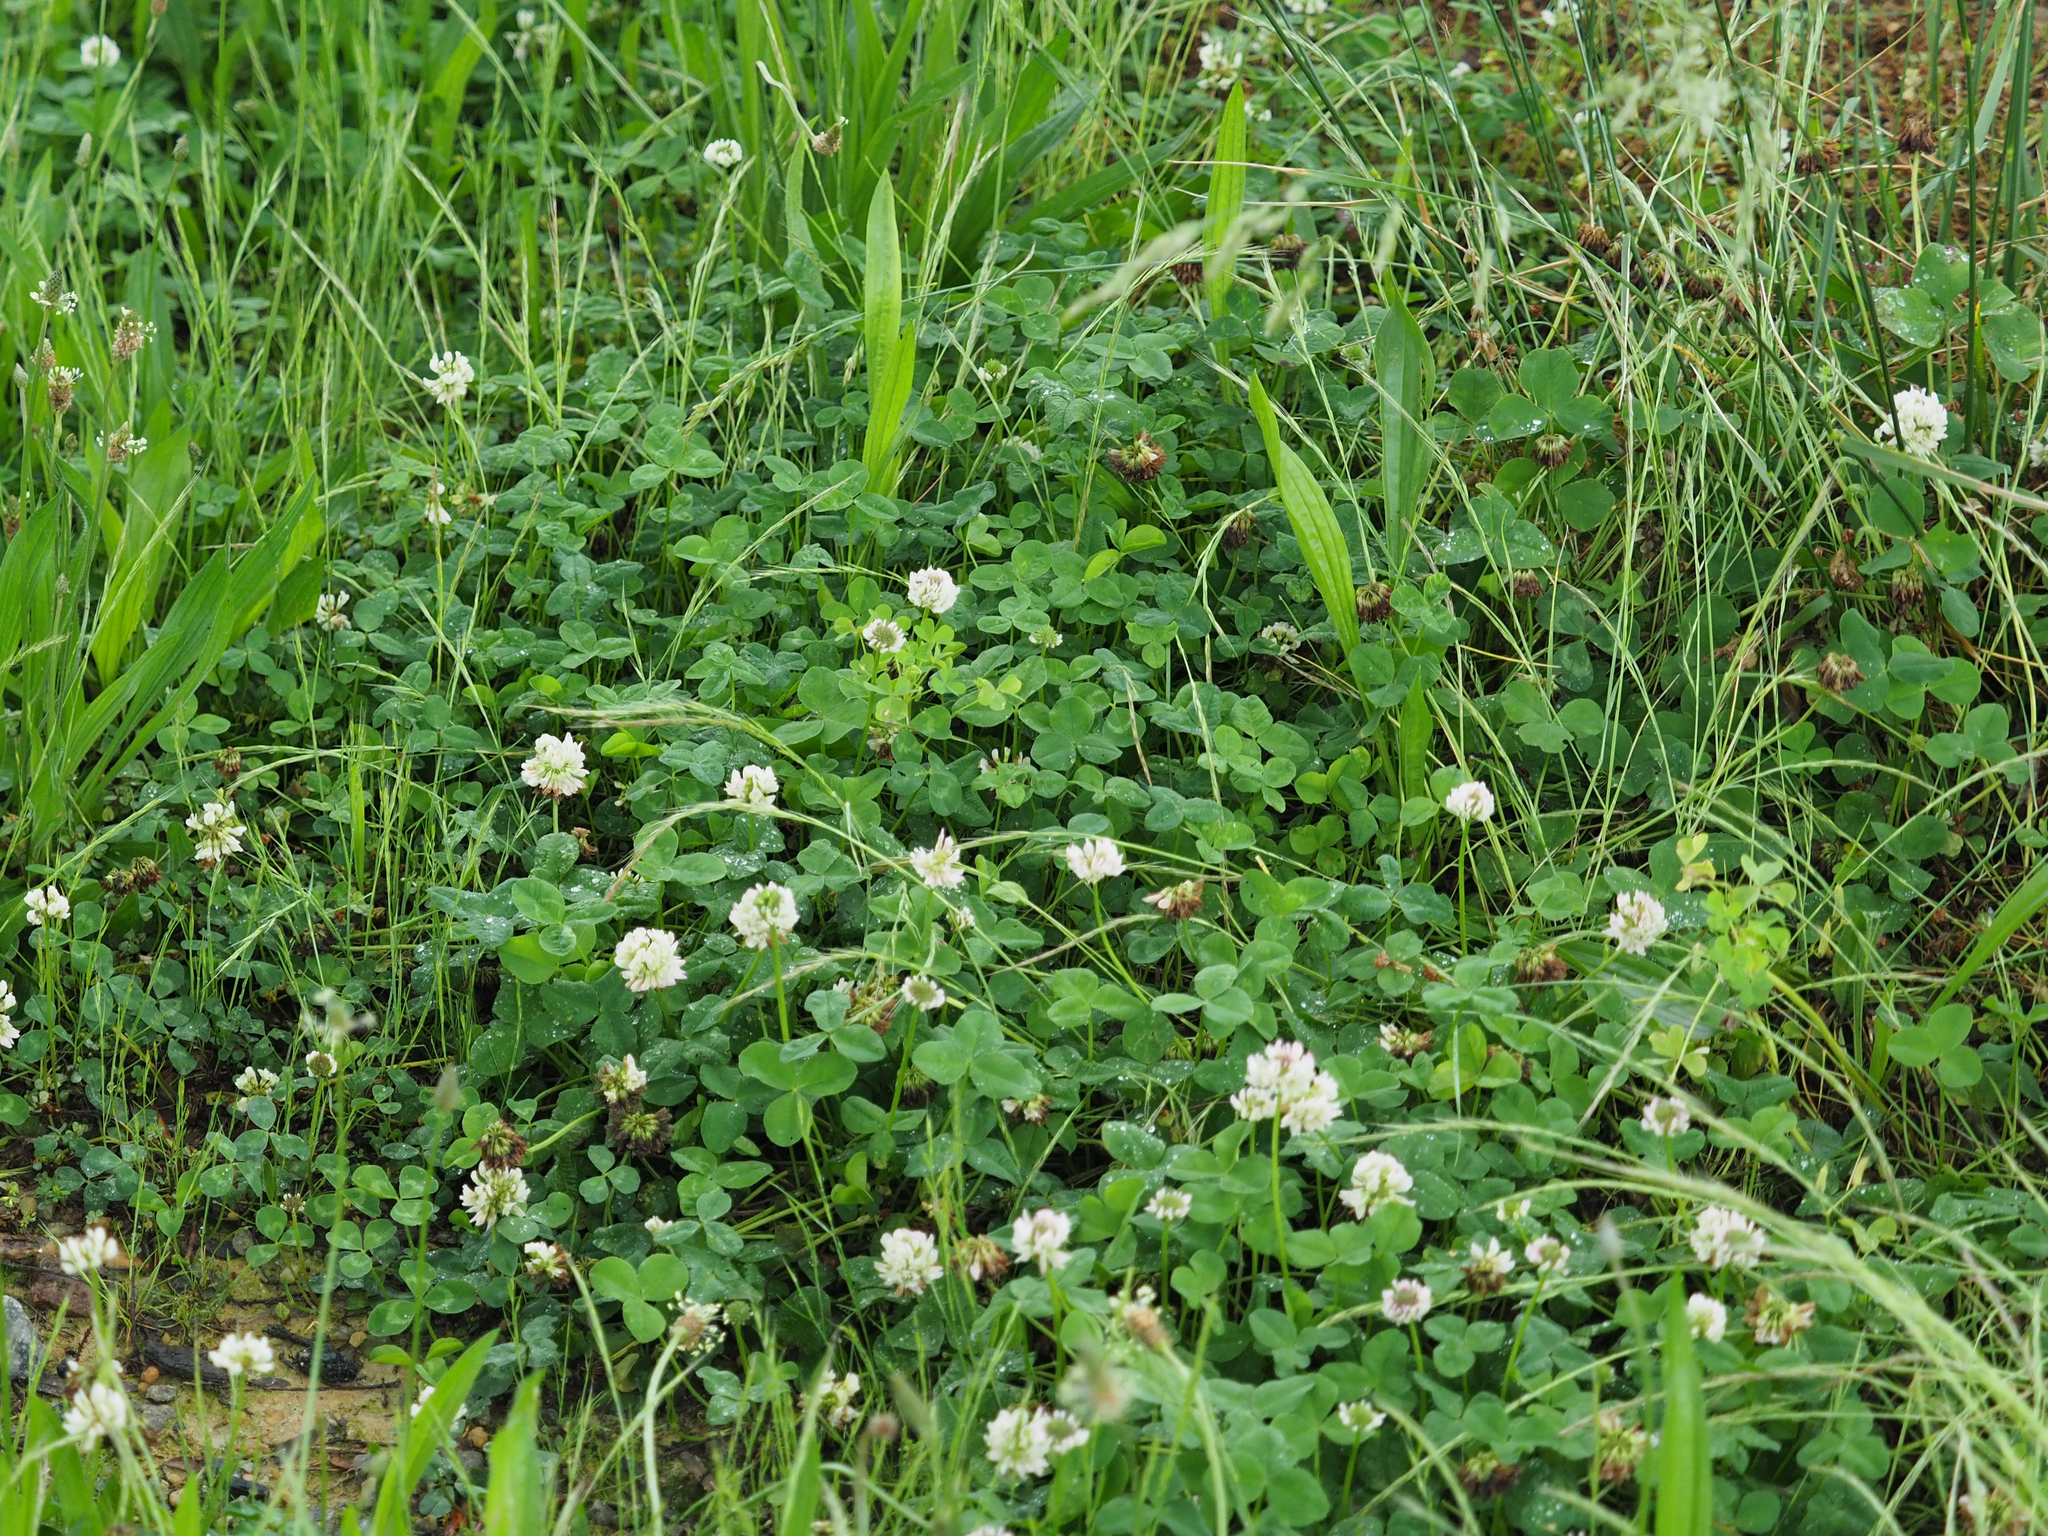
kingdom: Plantae
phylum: Tracheophyta
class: Magnoliopsida
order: Fabales
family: Fabaceae
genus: Trifolium
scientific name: Trifolium repens
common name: White clover
